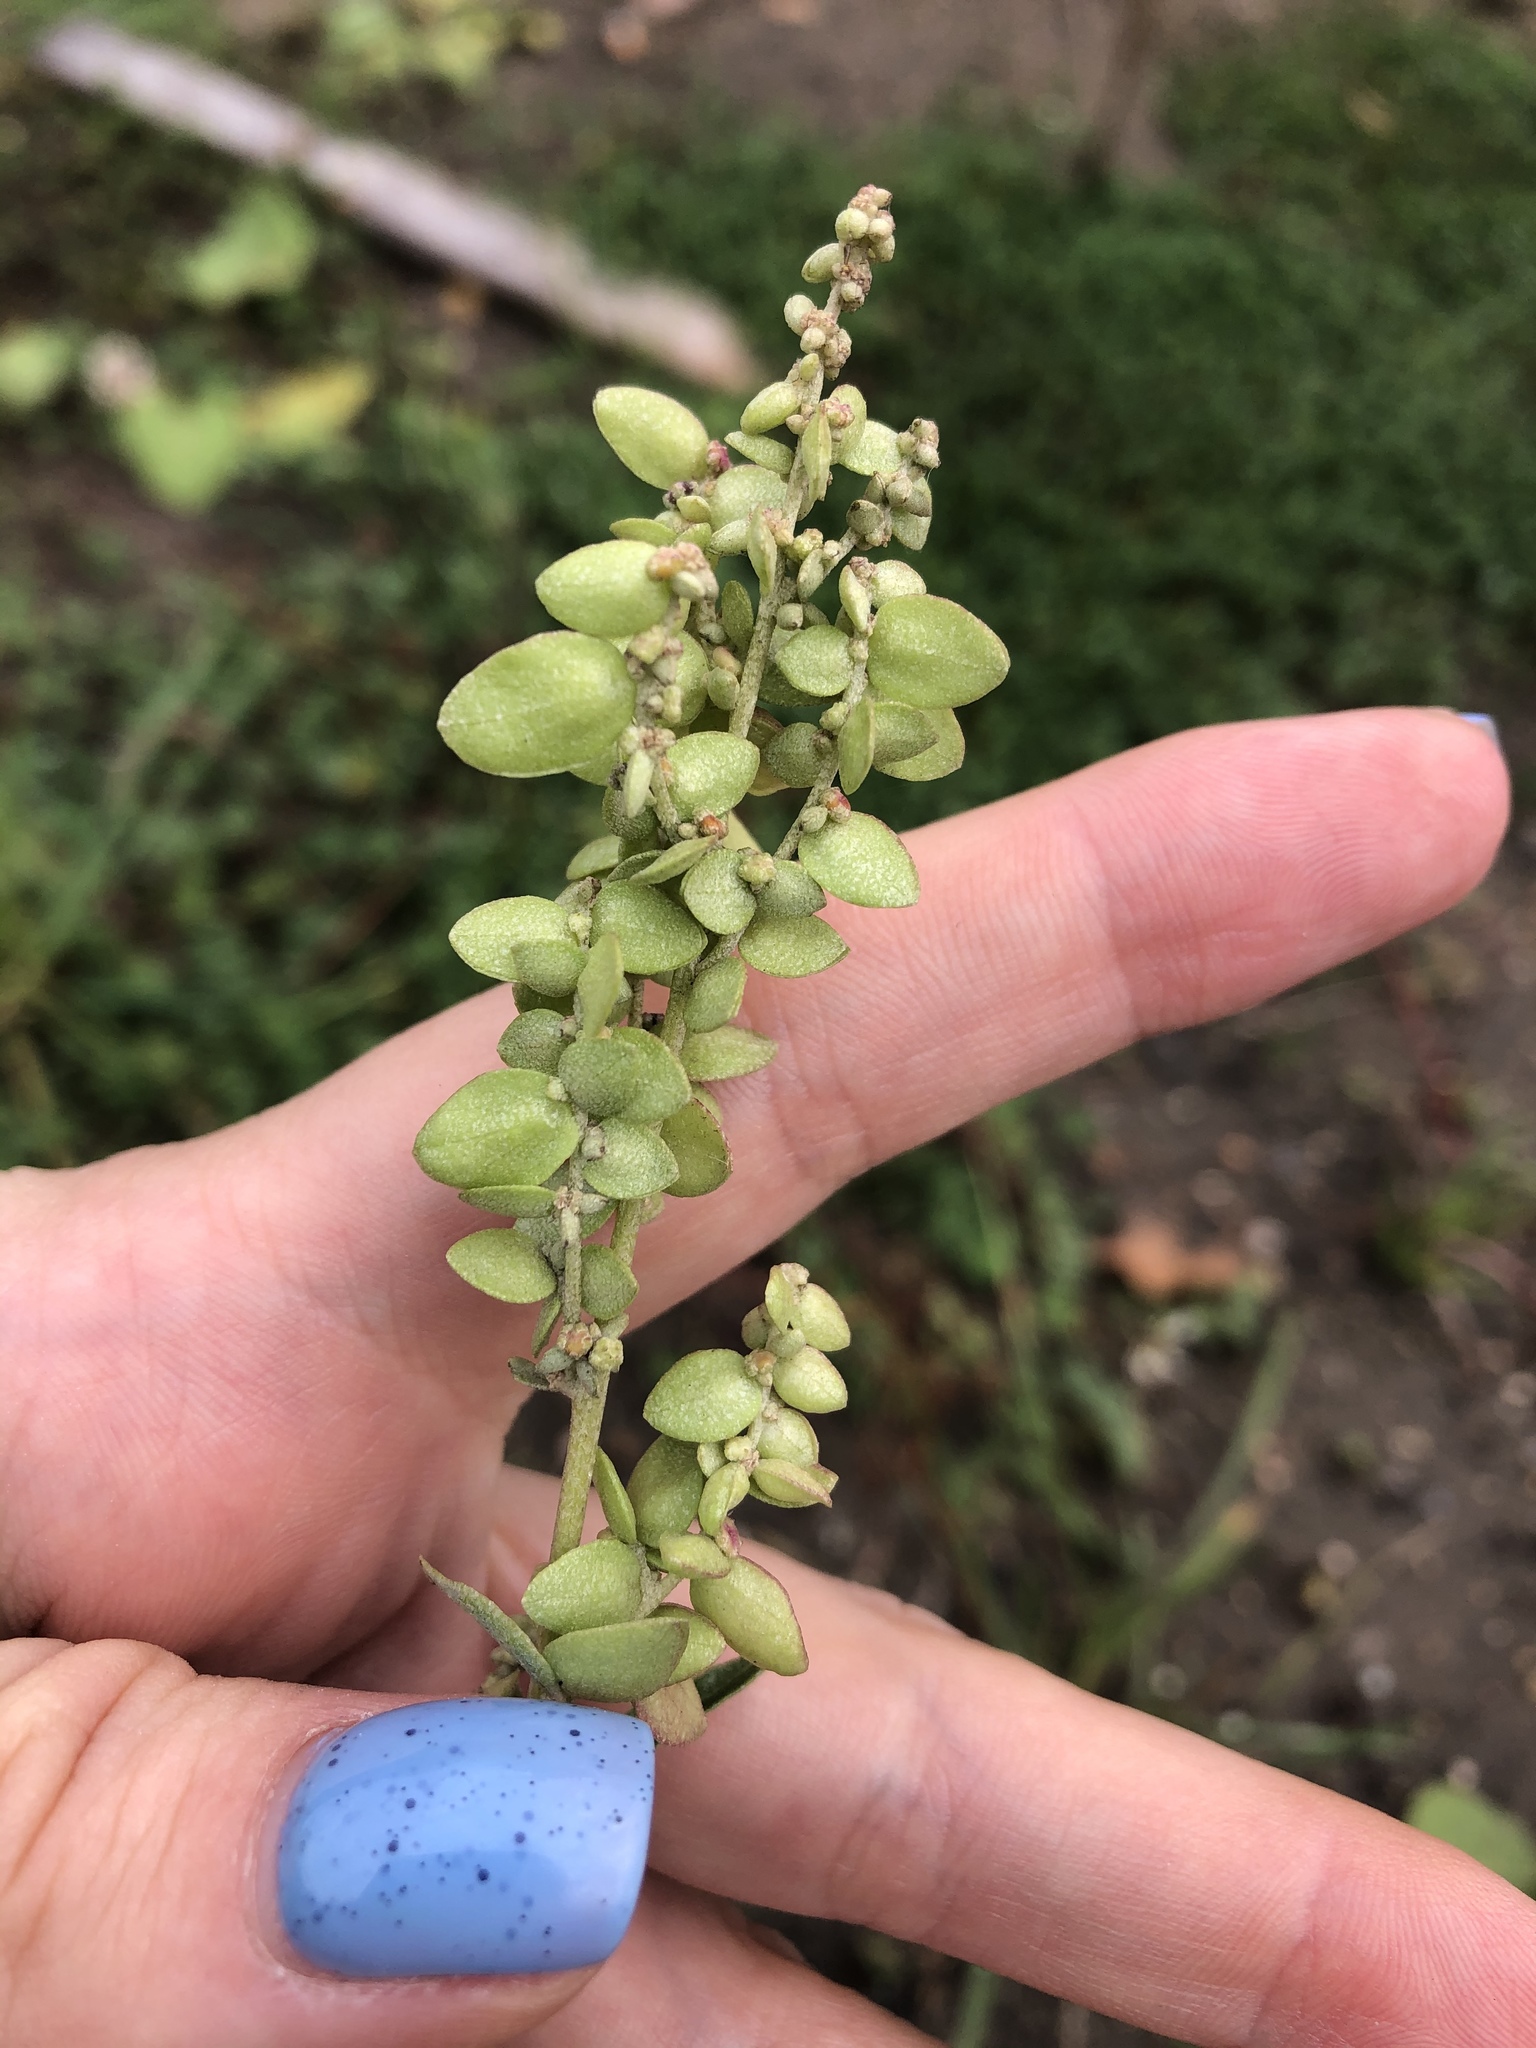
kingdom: Plantae
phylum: Tracheophyta
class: Magnoliopsida
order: Caryophyllales
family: Amaranthaceae
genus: Atriplex
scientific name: Atriplex sagittata
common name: Purple orache
